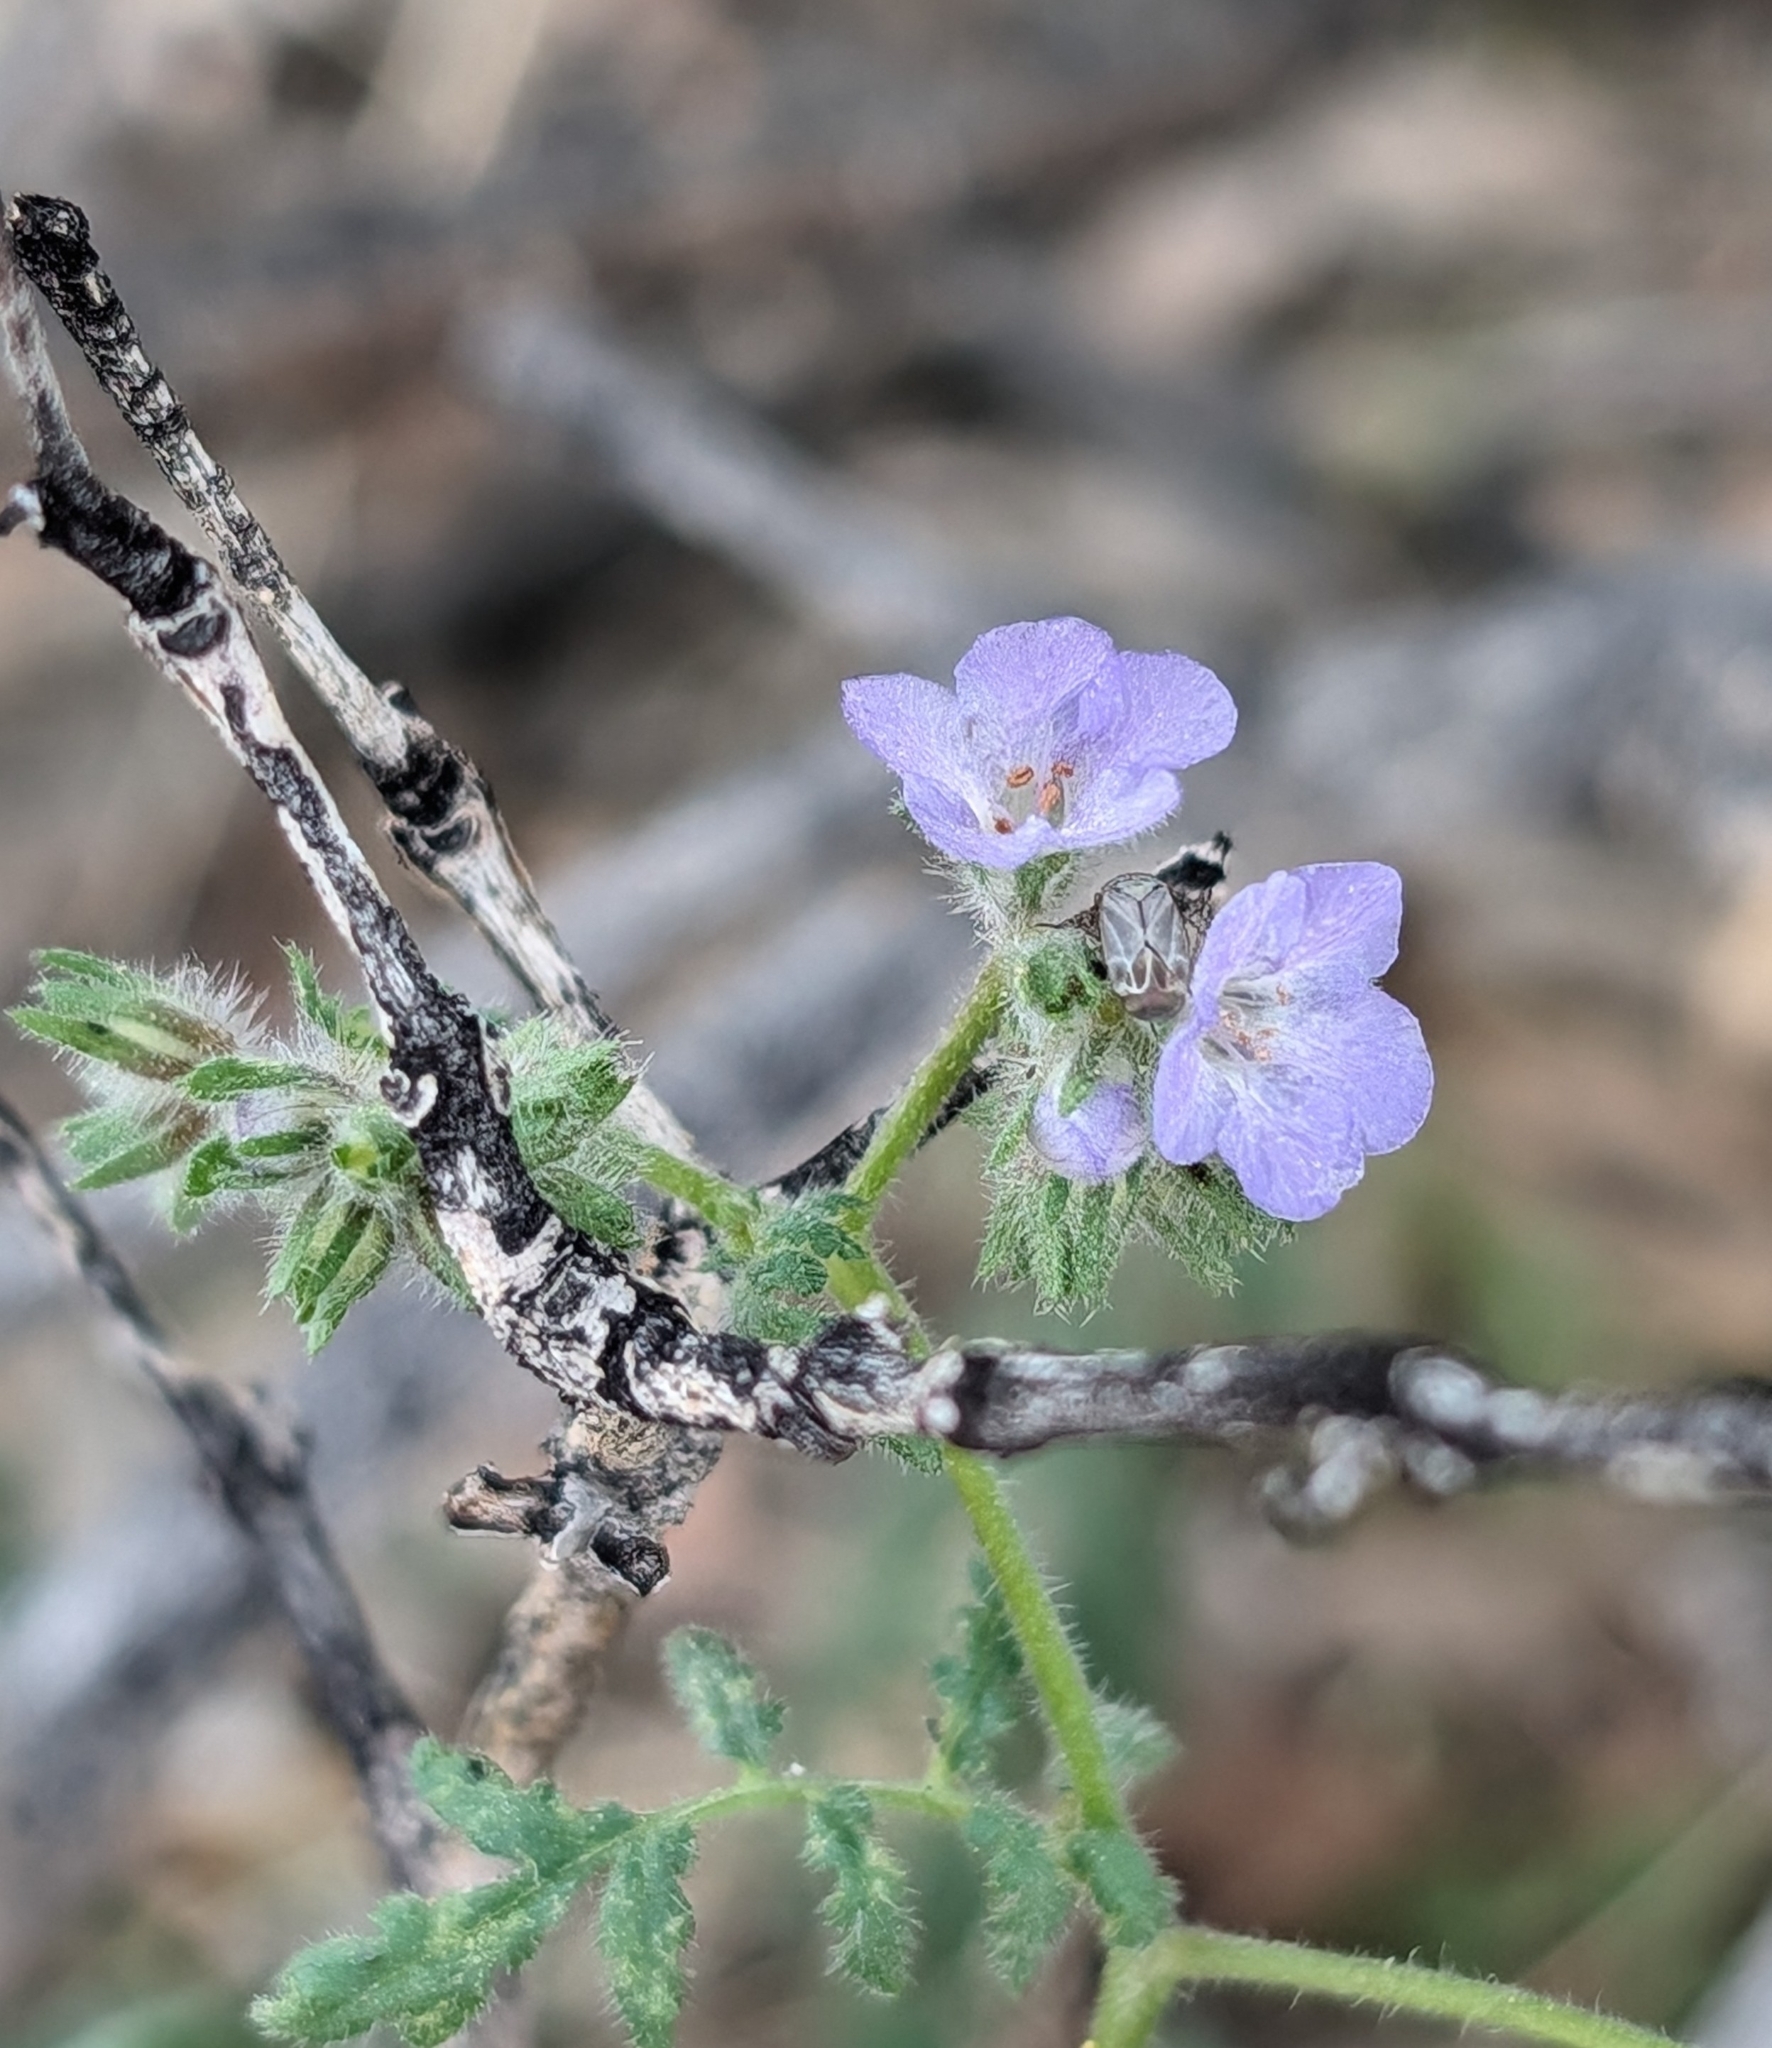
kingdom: Plantae
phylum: Tracheophyta
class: Magnoliopsida
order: Boraginales
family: Hydrophyllaceae
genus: Phacelia
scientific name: Phacelia distans
